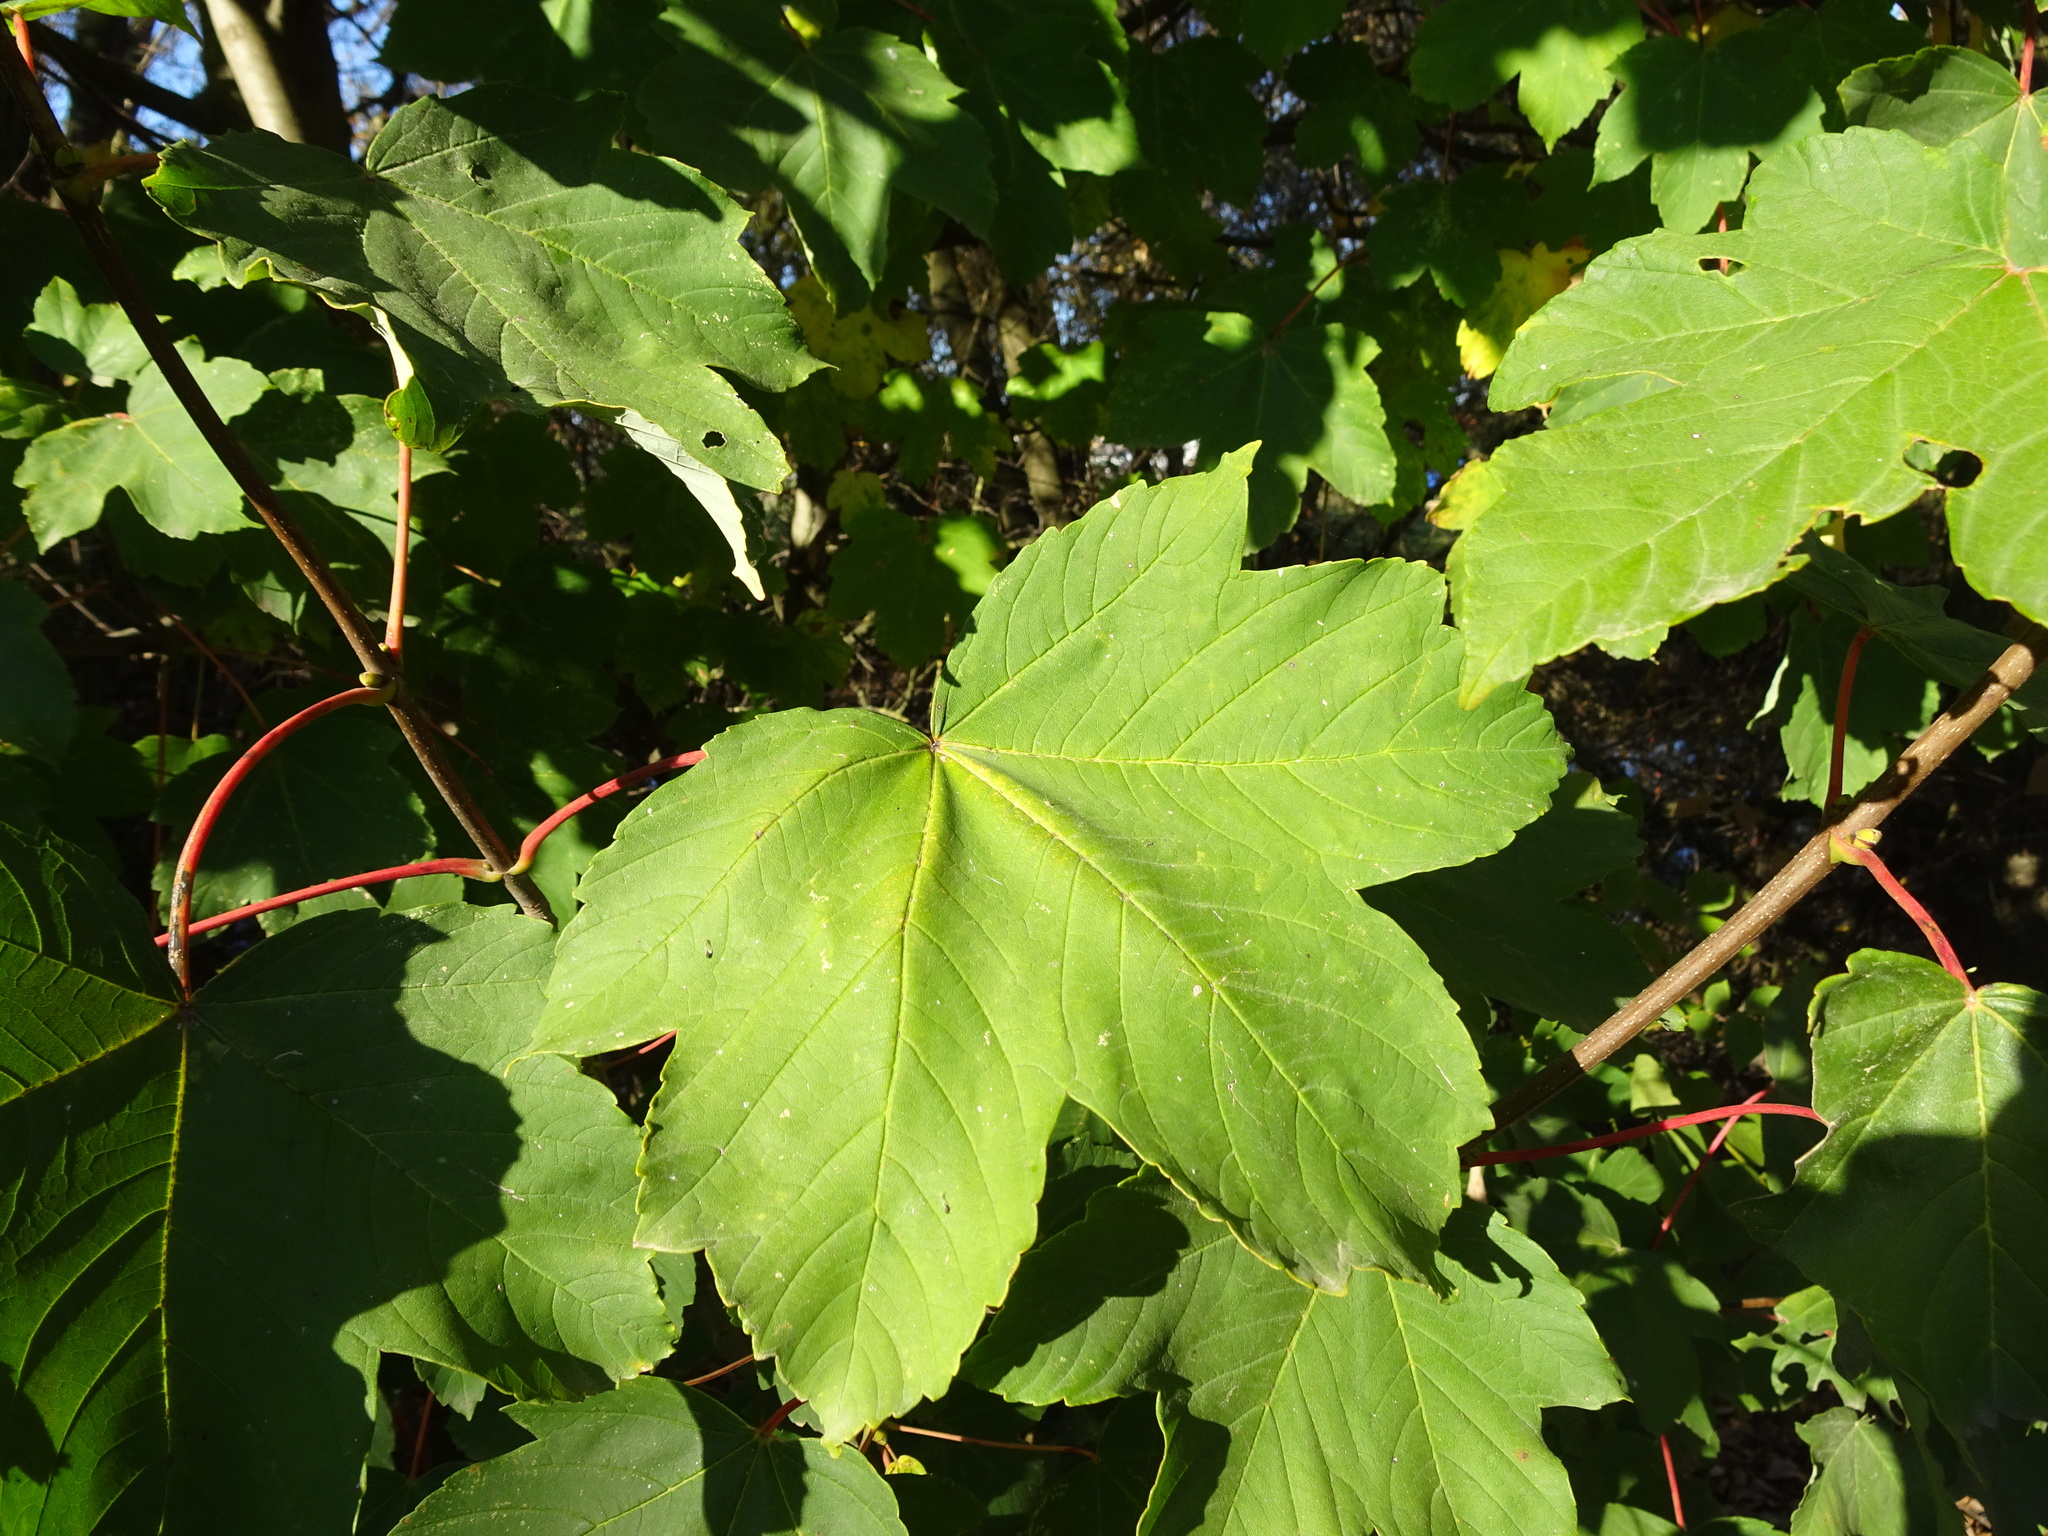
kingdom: Plantae
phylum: Tracheophyta
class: Magnoliopsida
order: Sapindales
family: Sapindaceae
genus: Acer
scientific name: Acer pseudoplatanus
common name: Sycamore
